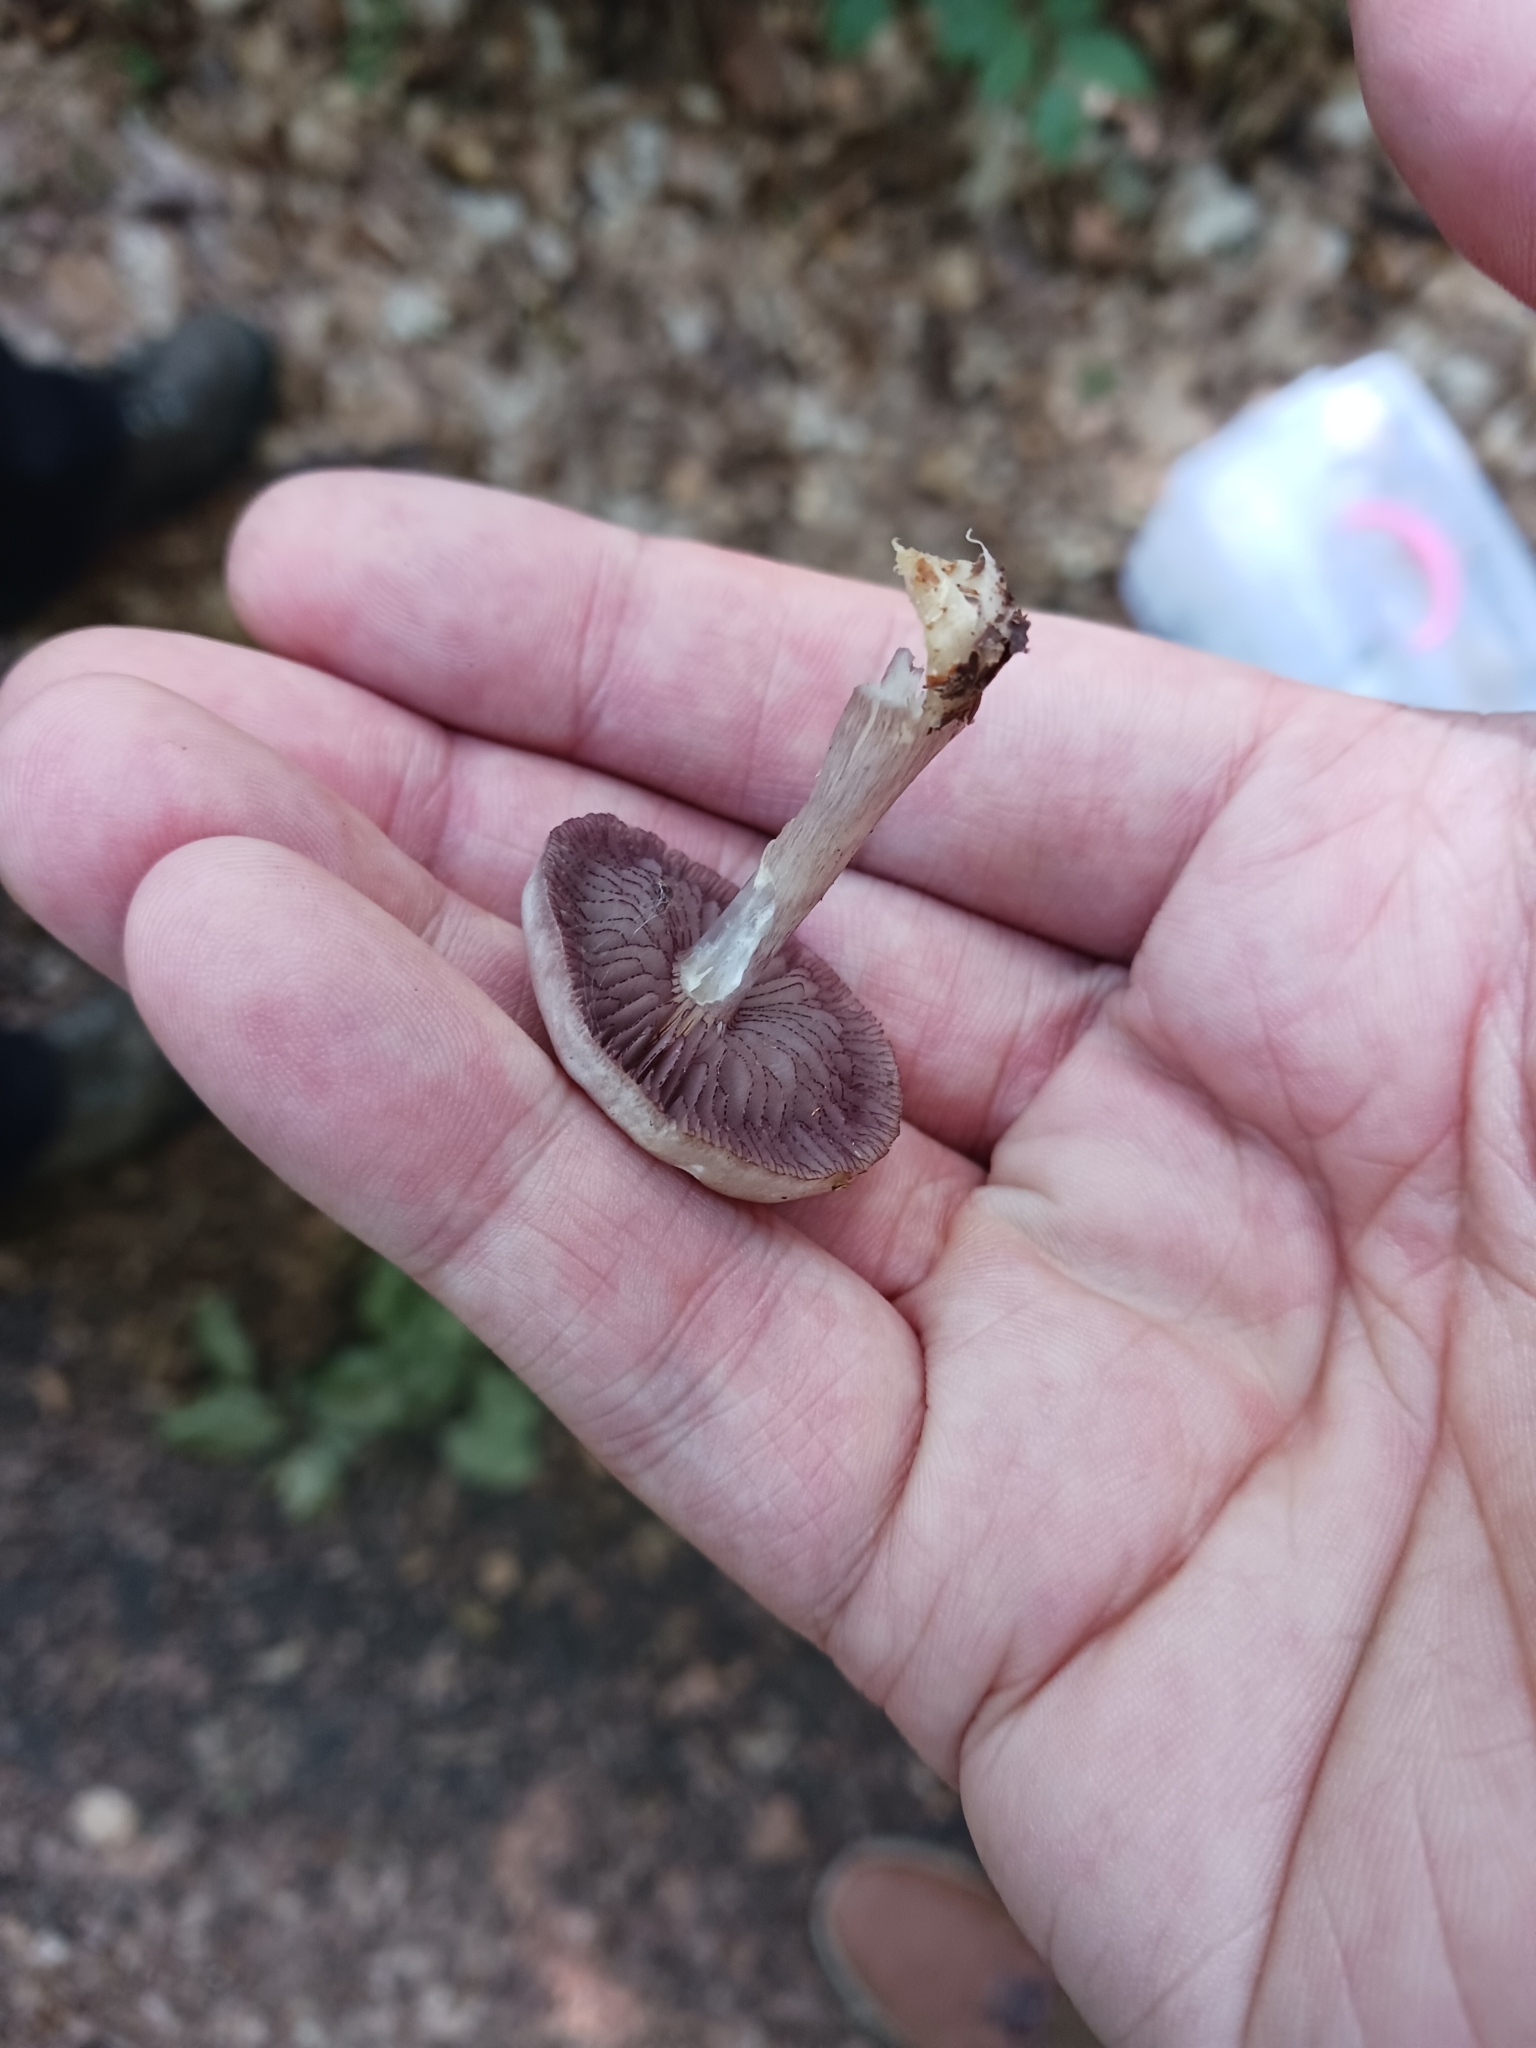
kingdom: Fungi
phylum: Basidiomycota
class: Agaricomycetes
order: Agaricales
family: Mycenaceae
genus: Mycena
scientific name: Mycena pelianthina
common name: Blackedge bonnet
